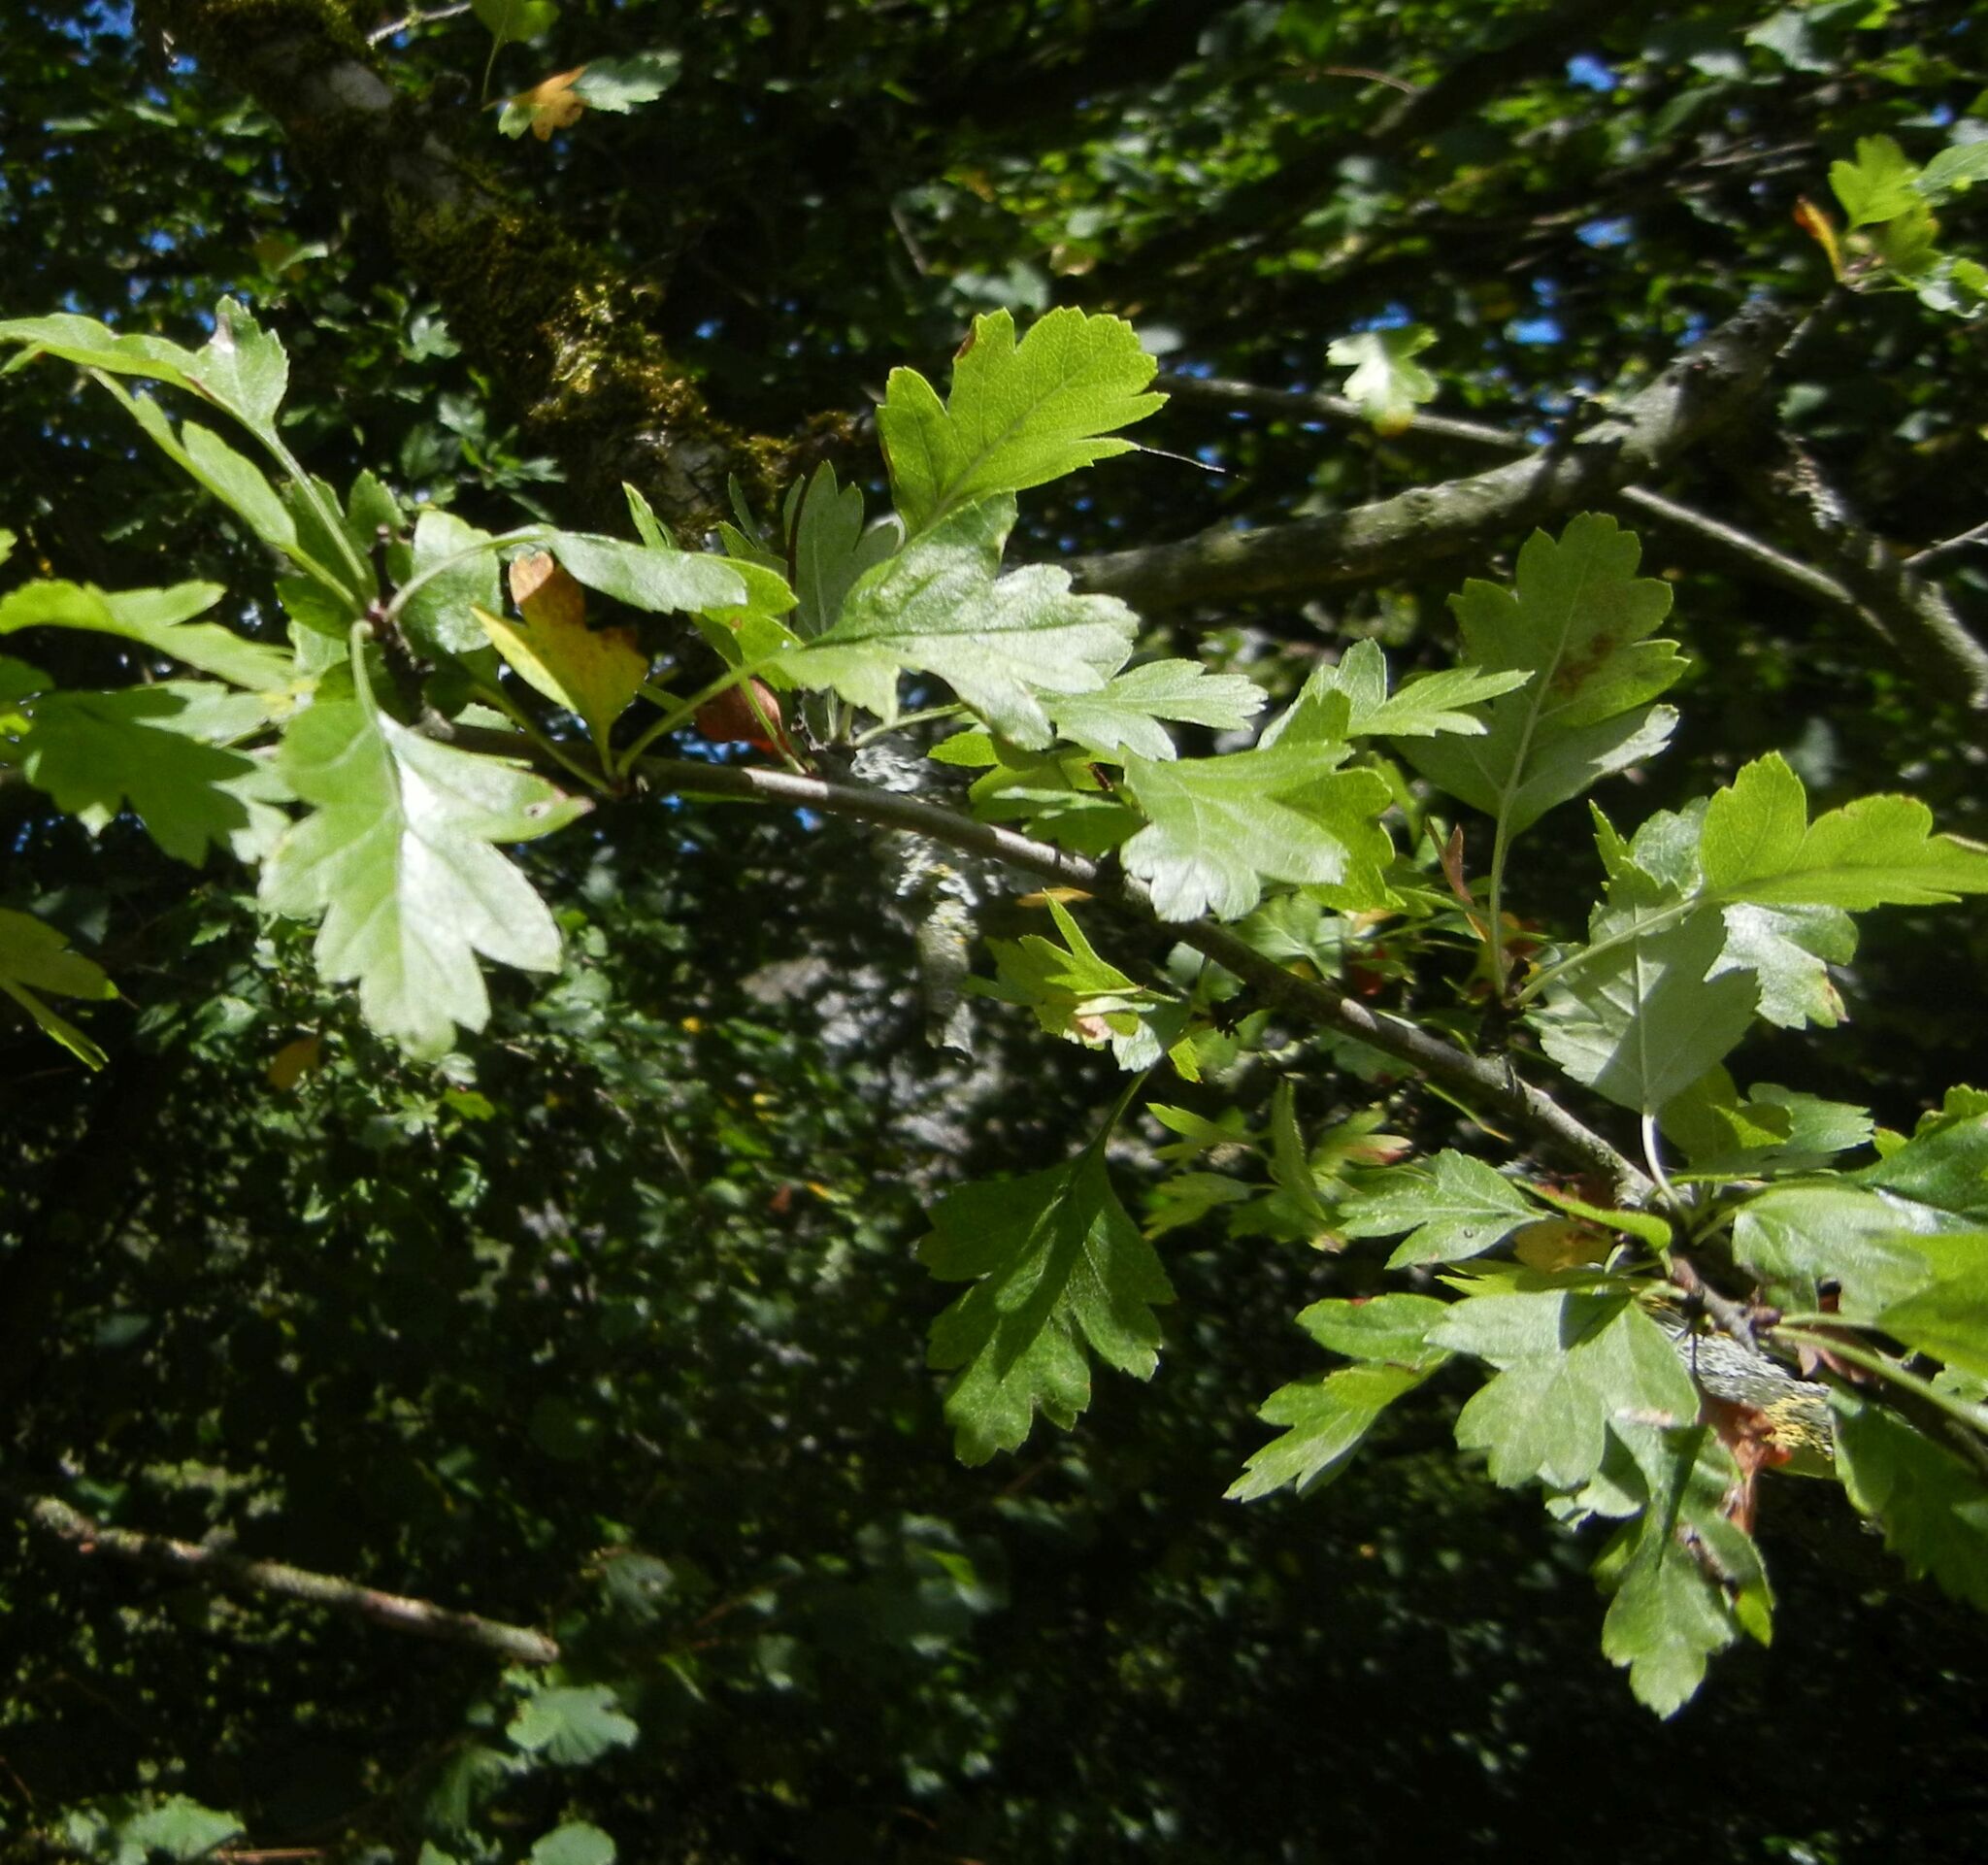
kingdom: Plantae
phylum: Tracheophyta
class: Magnoliopsida
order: Rosales
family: Rosaceae
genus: Crataegus
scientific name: Crataegus monogyna
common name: Hawthorn
